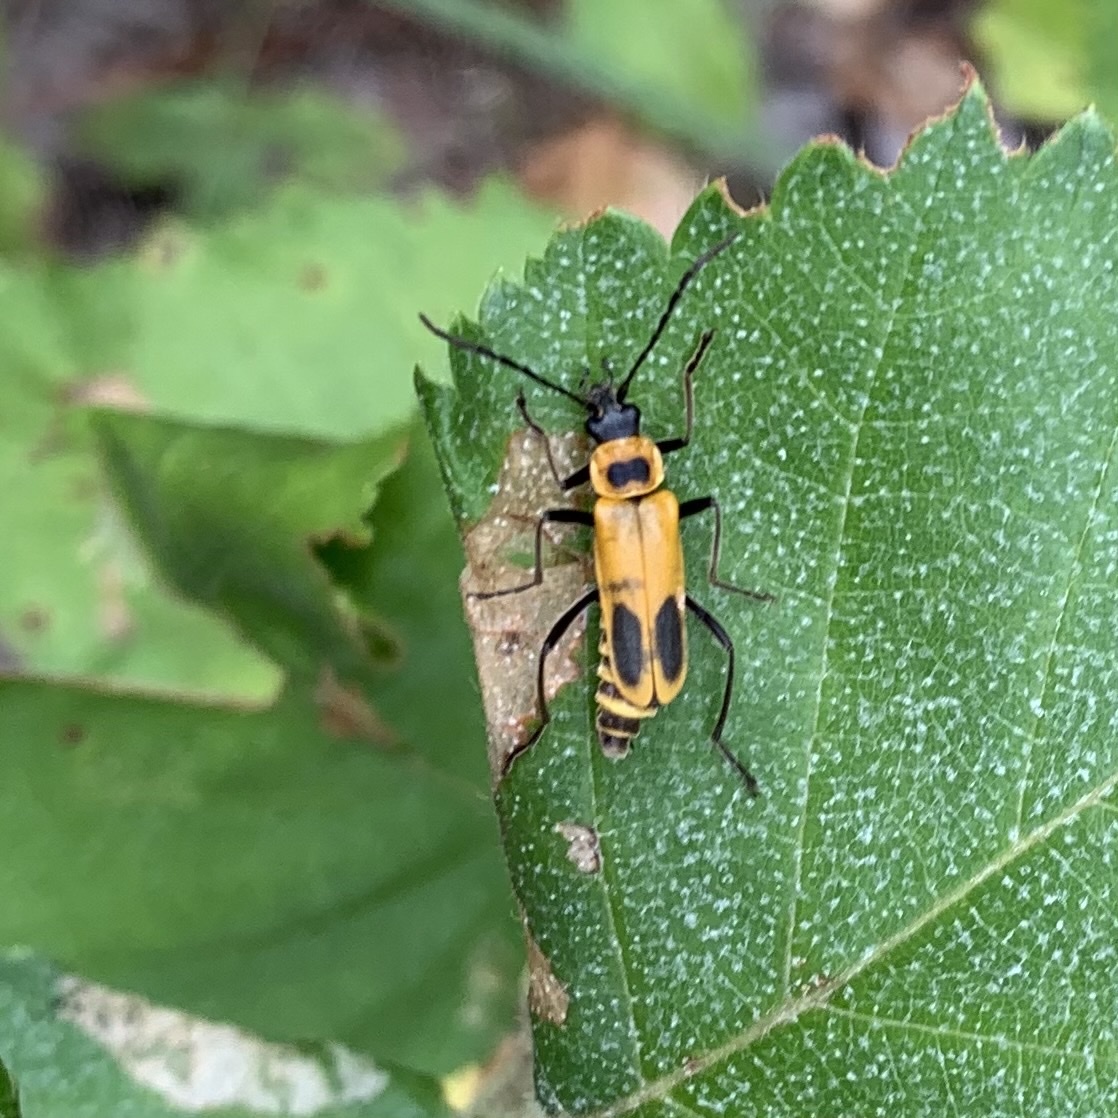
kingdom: Animalia
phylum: Arthropoda
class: Insecta
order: Coleoptera
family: Cantharidae
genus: Chauliognathus
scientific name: Chauliognathus pensylvanicus
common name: Goldenrod soldier beetle
